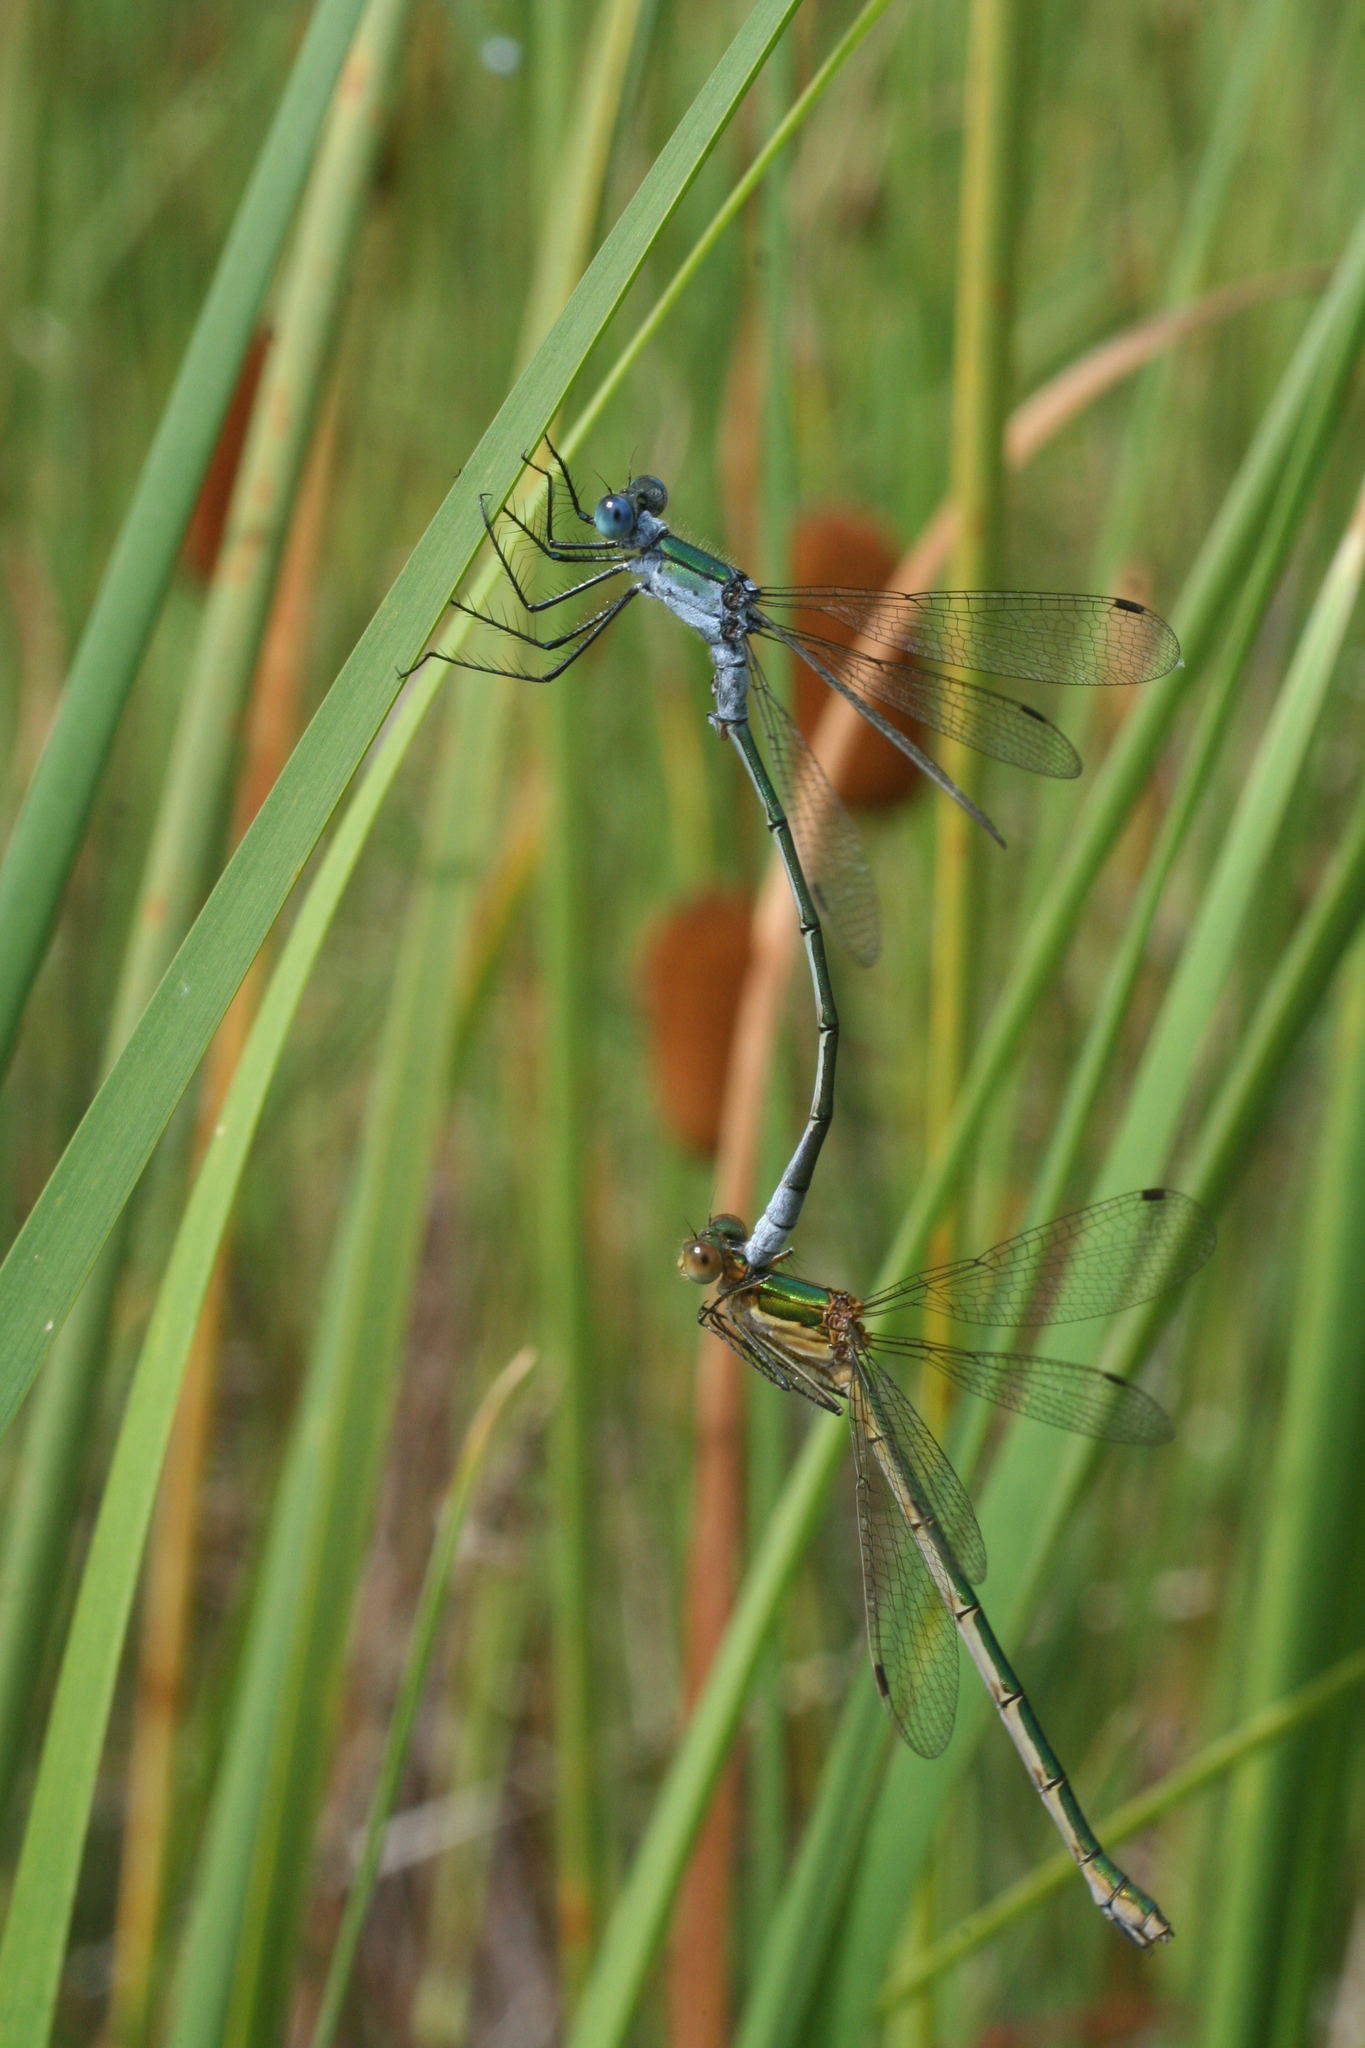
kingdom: Animalia
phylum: Arthropoda
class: Insecta
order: Odonata
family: Lestidae
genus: Lestes
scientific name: Lestes sponsa
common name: Common spreadwing
